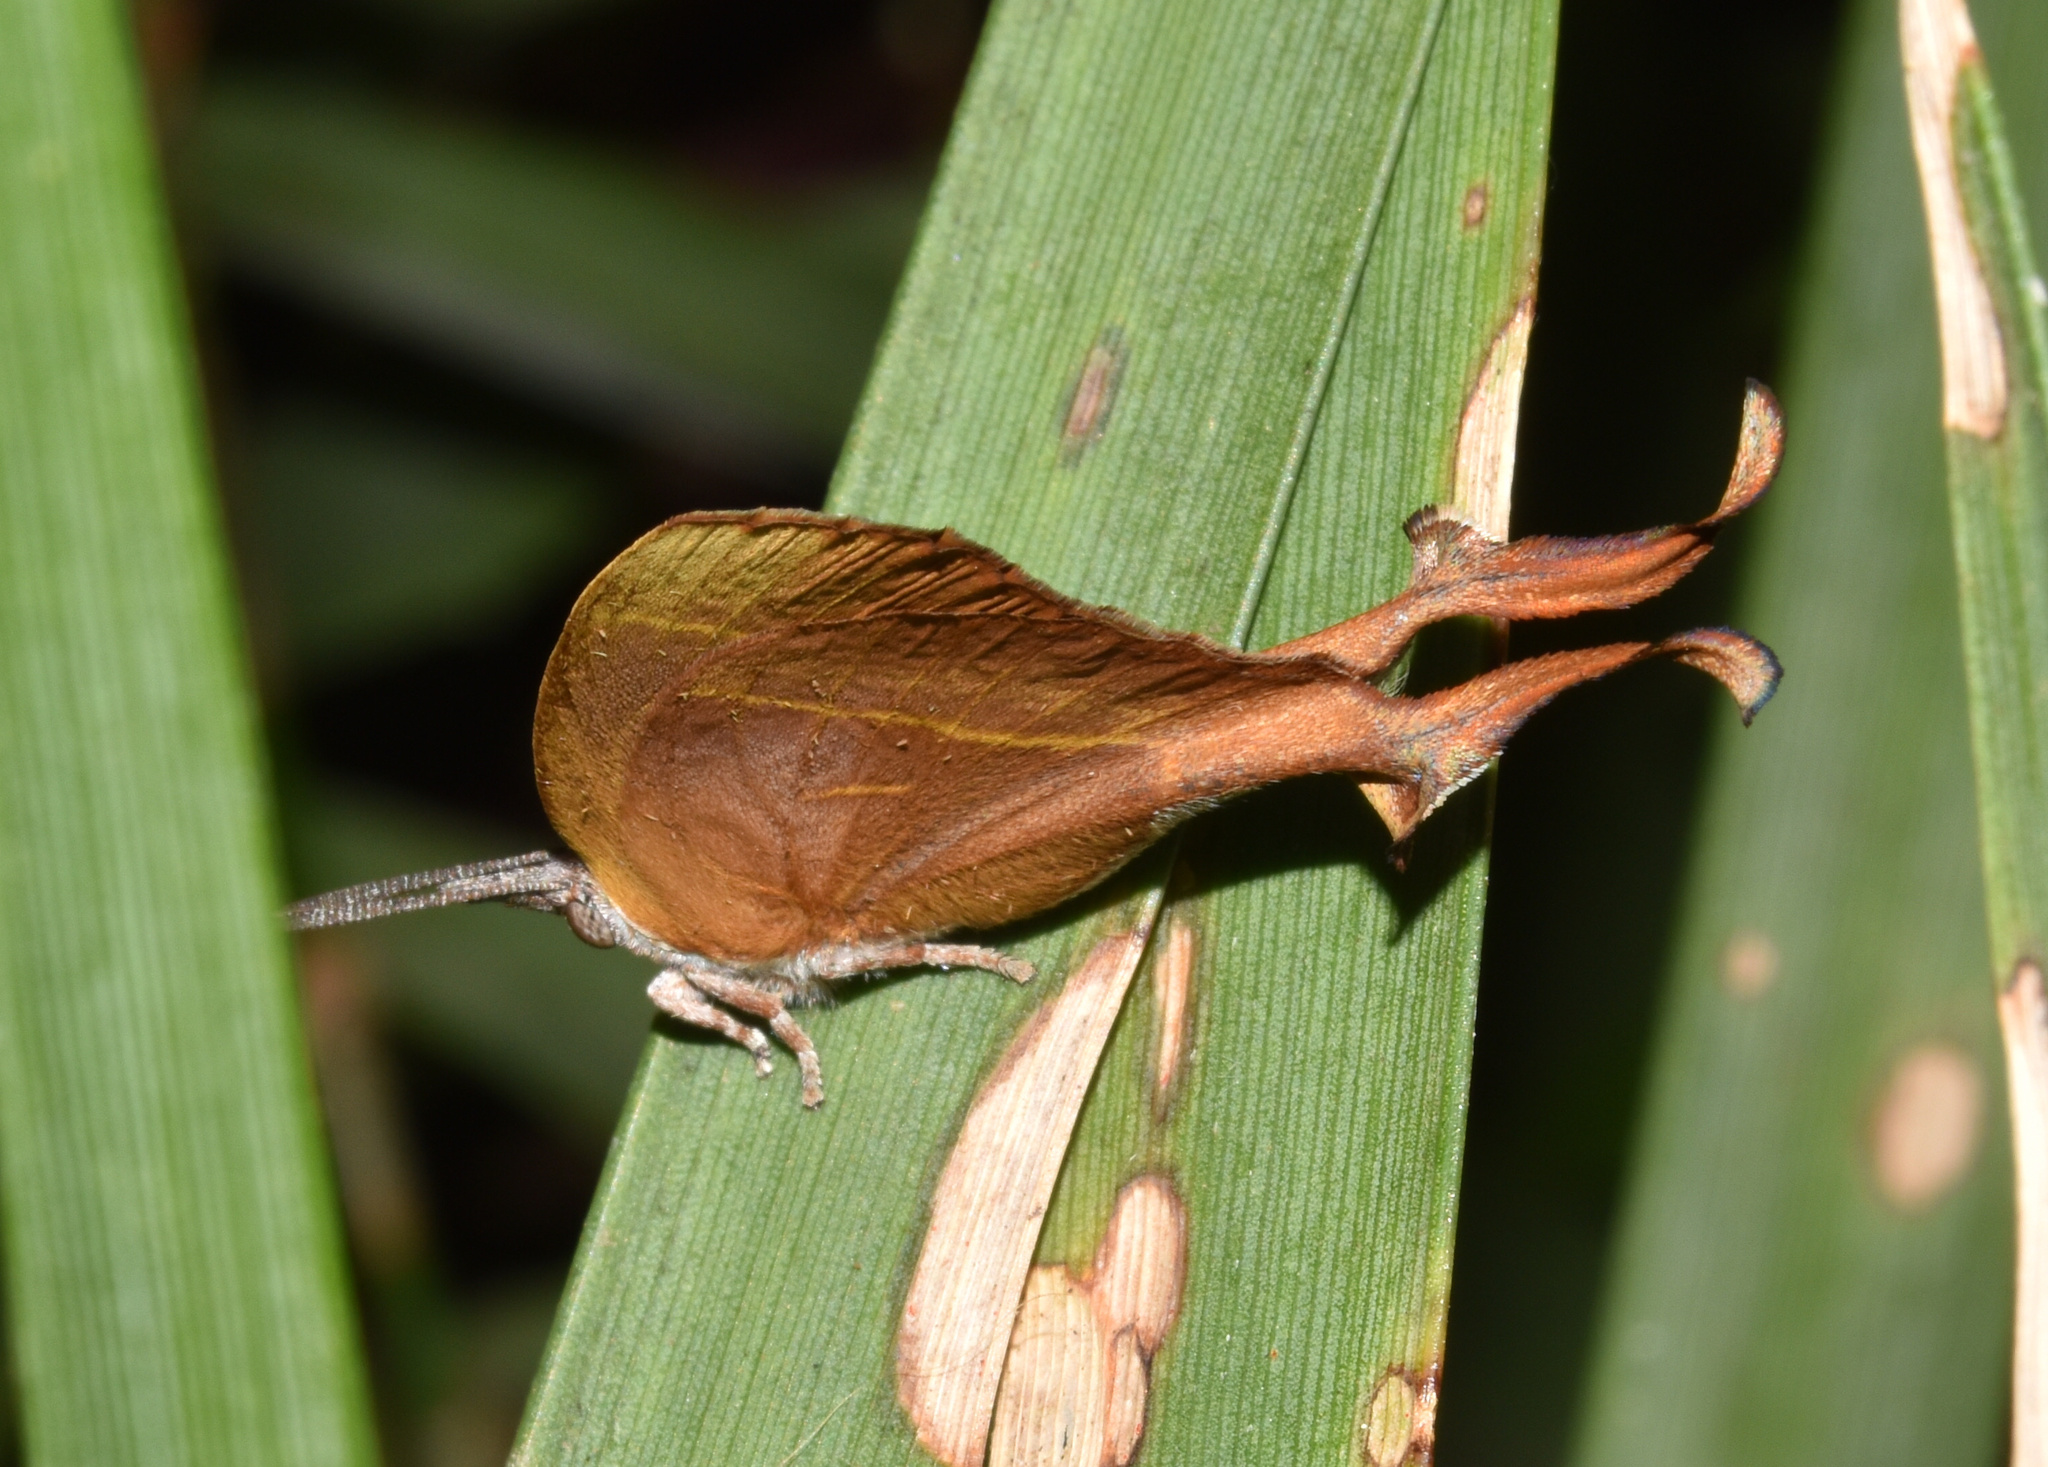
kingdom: Animalia
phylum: Arthropoda
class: Insecta
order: Lepidoptera
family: Lycaenidae
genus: Myrina
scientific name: Myrina silenus
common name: Amber fig-tree blue
